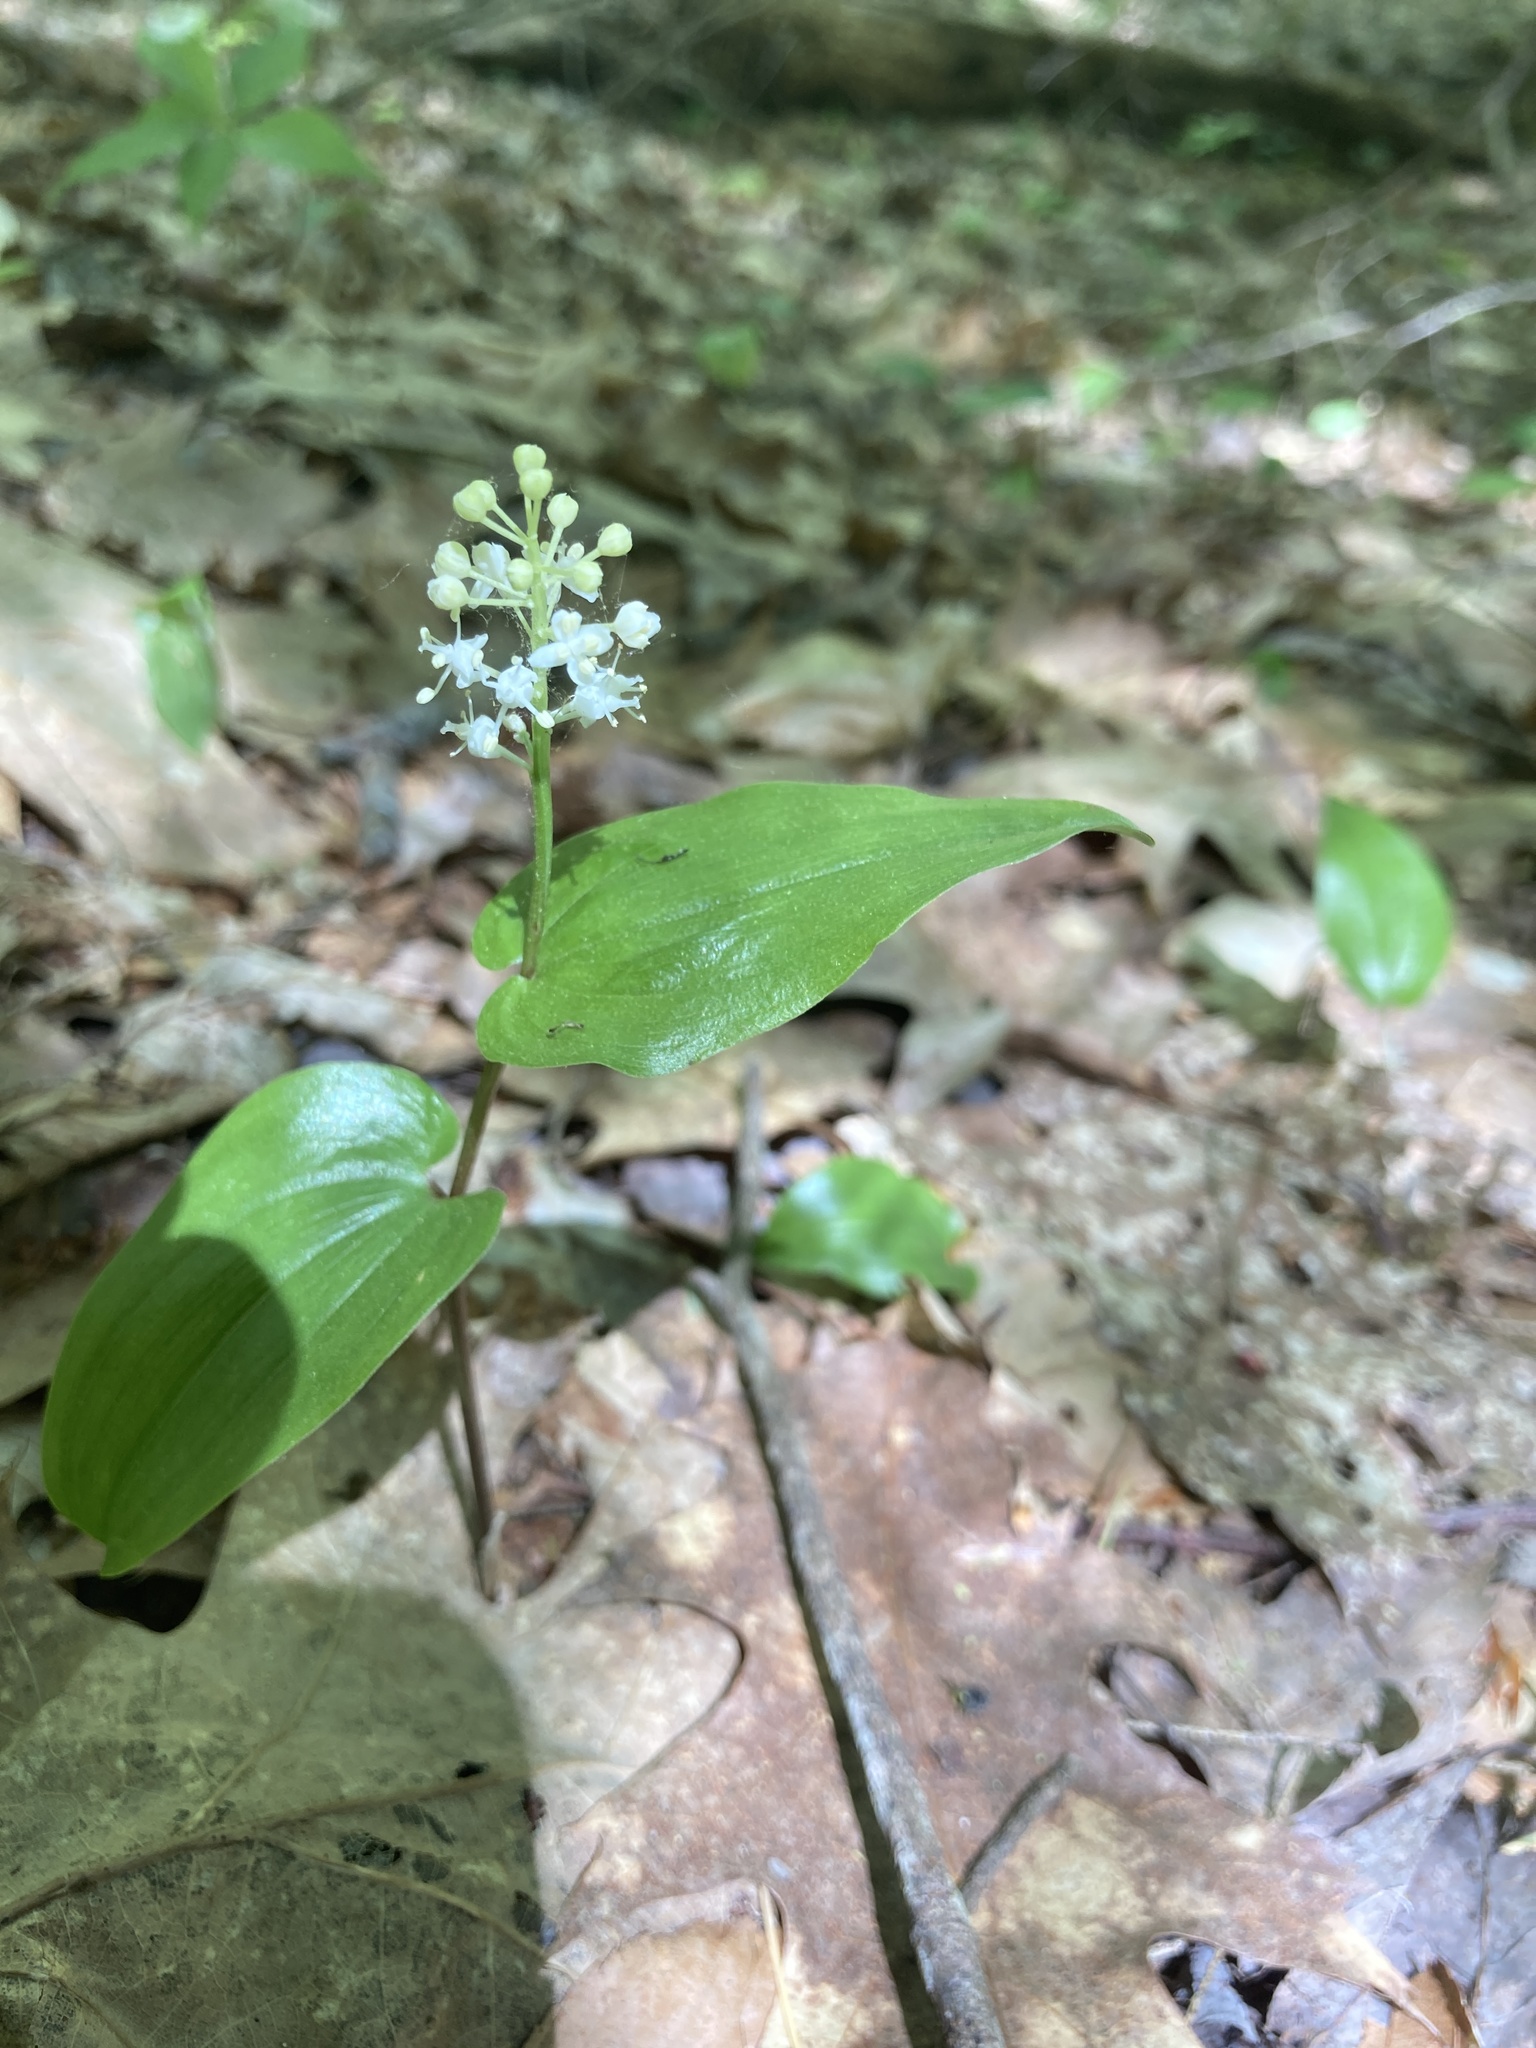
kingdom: Plantae
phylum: Tracheophyta
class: Liliopsida
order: Asparagales
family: Asparagaceae
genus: Maianthemum
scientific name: Maianthemum canadense
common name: False lily-of-the-valley
